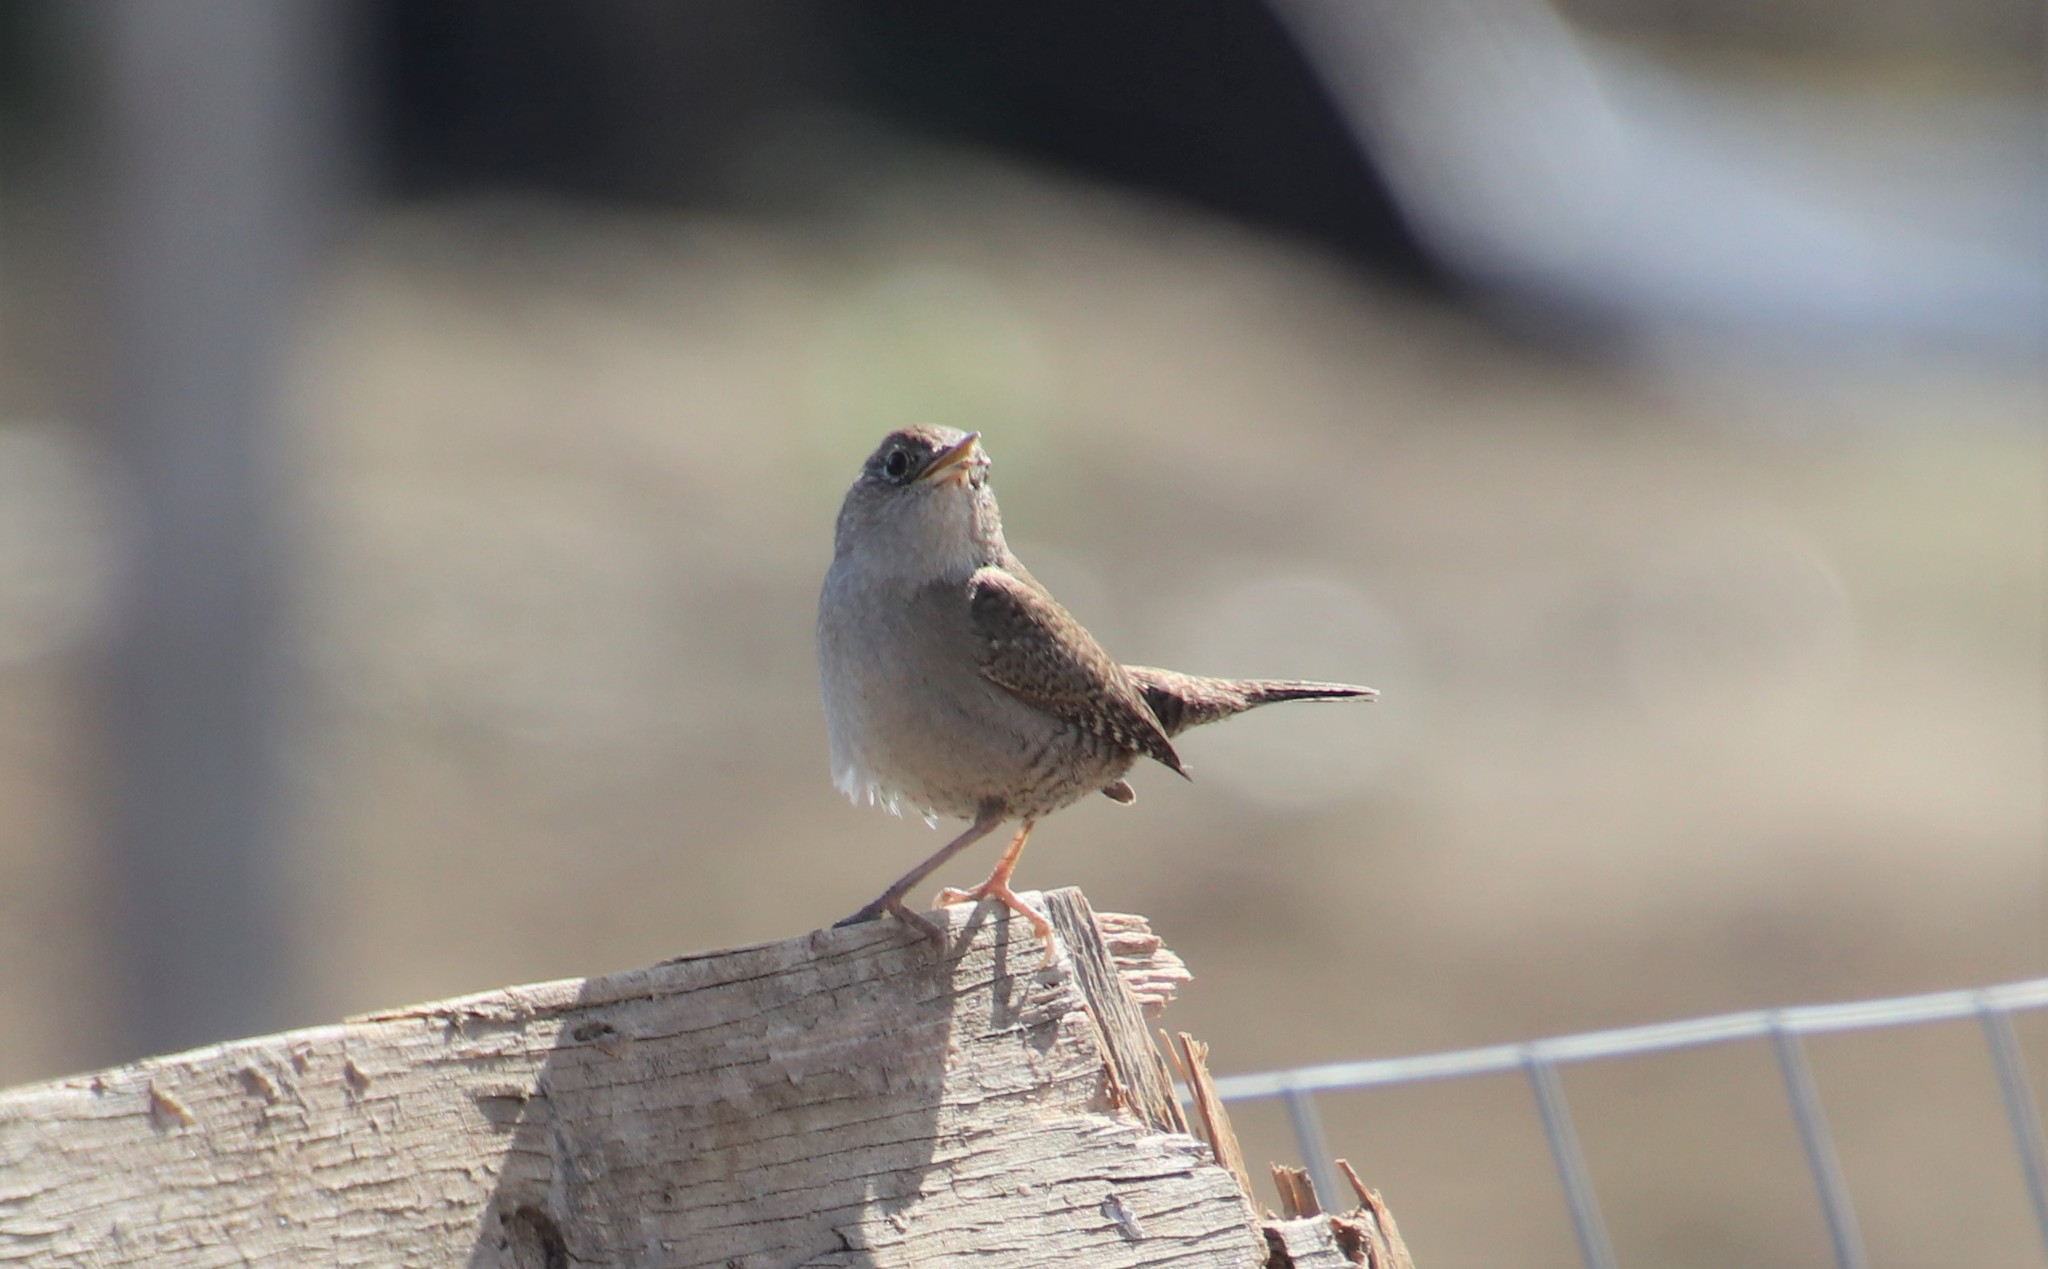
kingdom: Animalia
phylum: Chordata
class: Aves
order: Passeriformes
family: Troglodytidae
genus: Troglodytes
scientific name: Troglodytes aedon
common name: House wren
